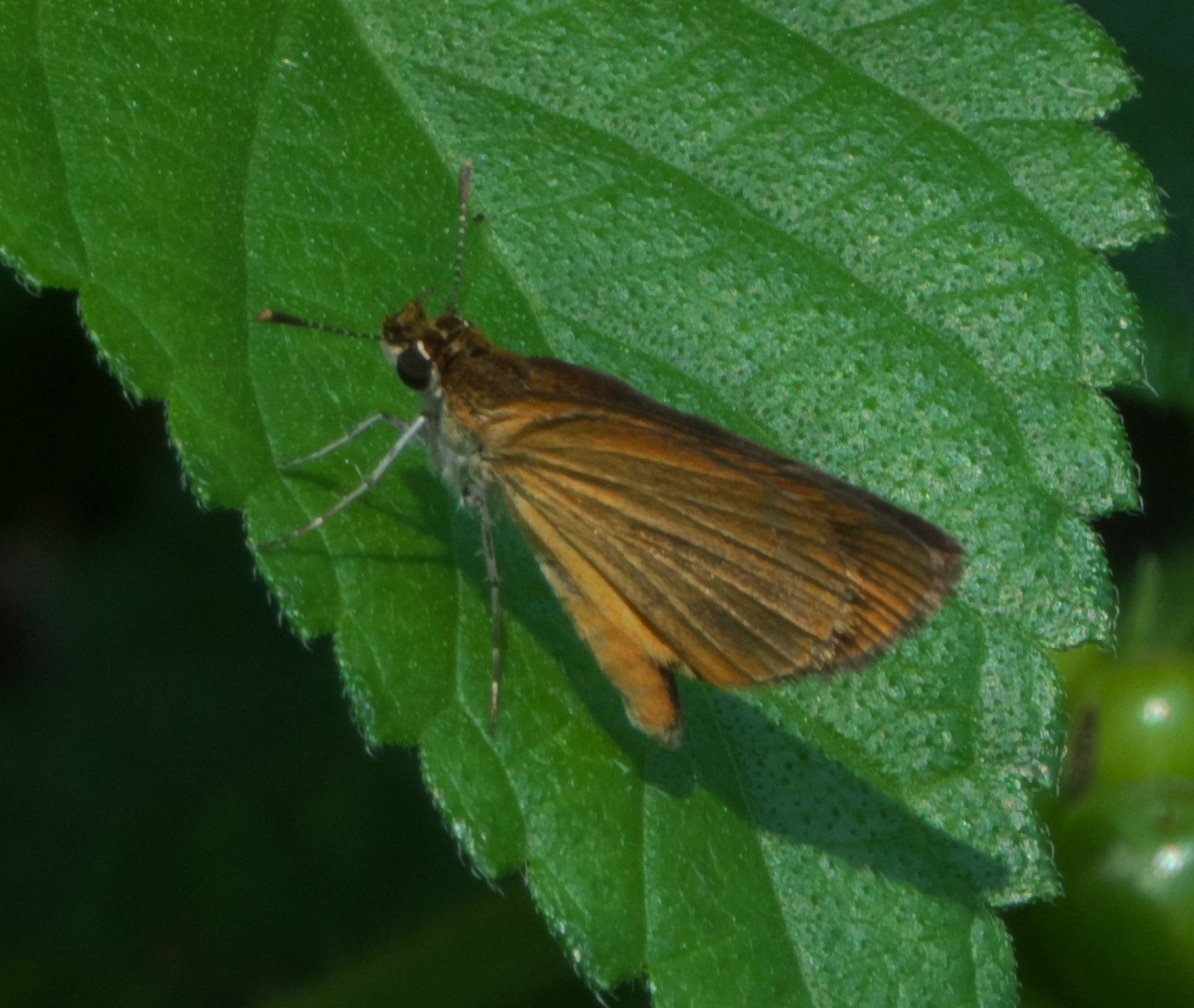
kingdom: Animalia
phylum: Arthropoda
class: Insecta
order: Lepidoptera
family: Hesperiidae
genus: Ancyloxypha
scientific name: Ancyloxypha numitor
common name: Least skipper
